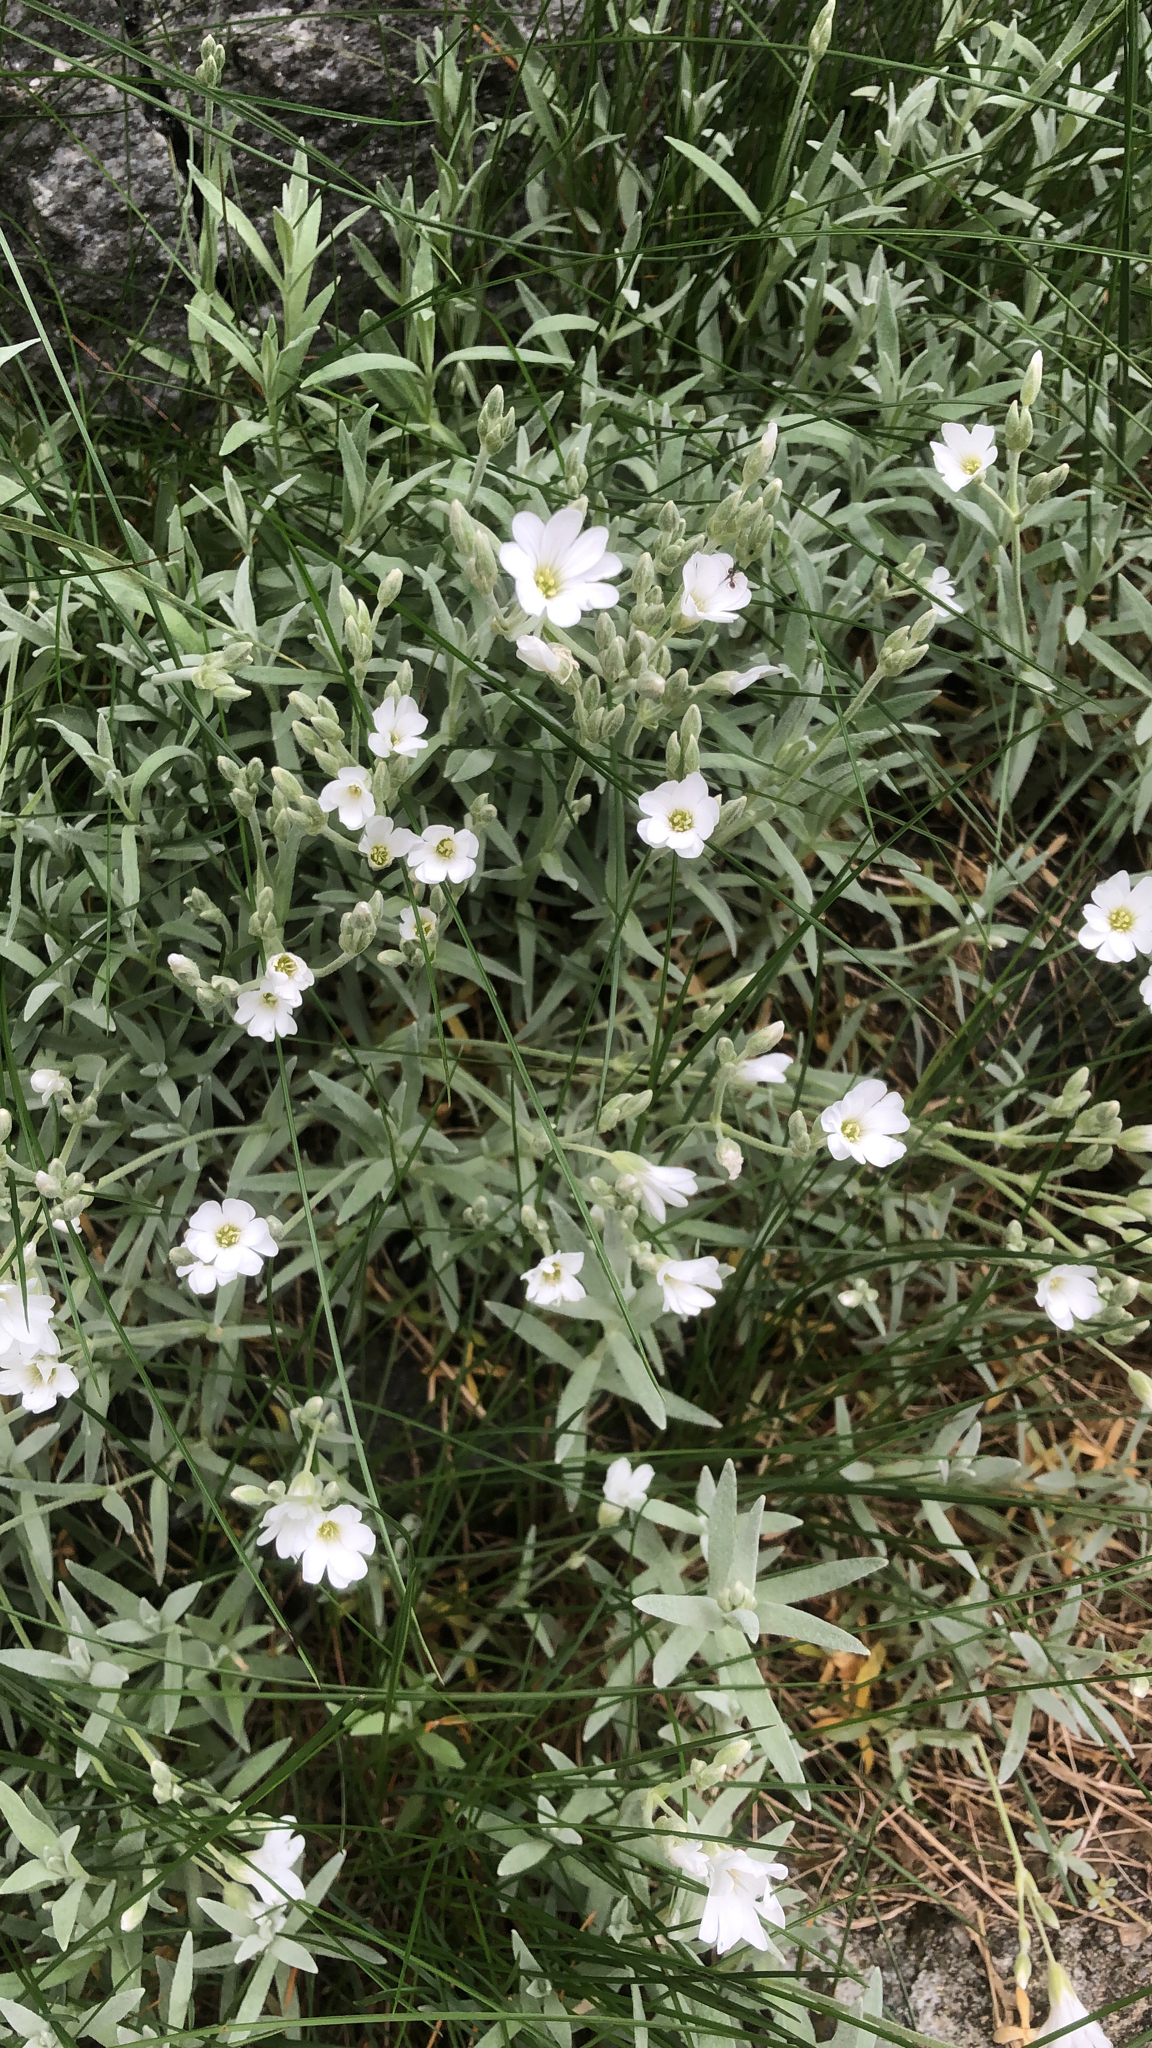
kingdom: Plantae
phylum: Tracheophyta
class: Magnoliopsida
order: Caryophyllales
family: Caryophyllaceae
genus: Cerastium
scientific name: Cerastium tomentosum
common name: Snow-in-summer
